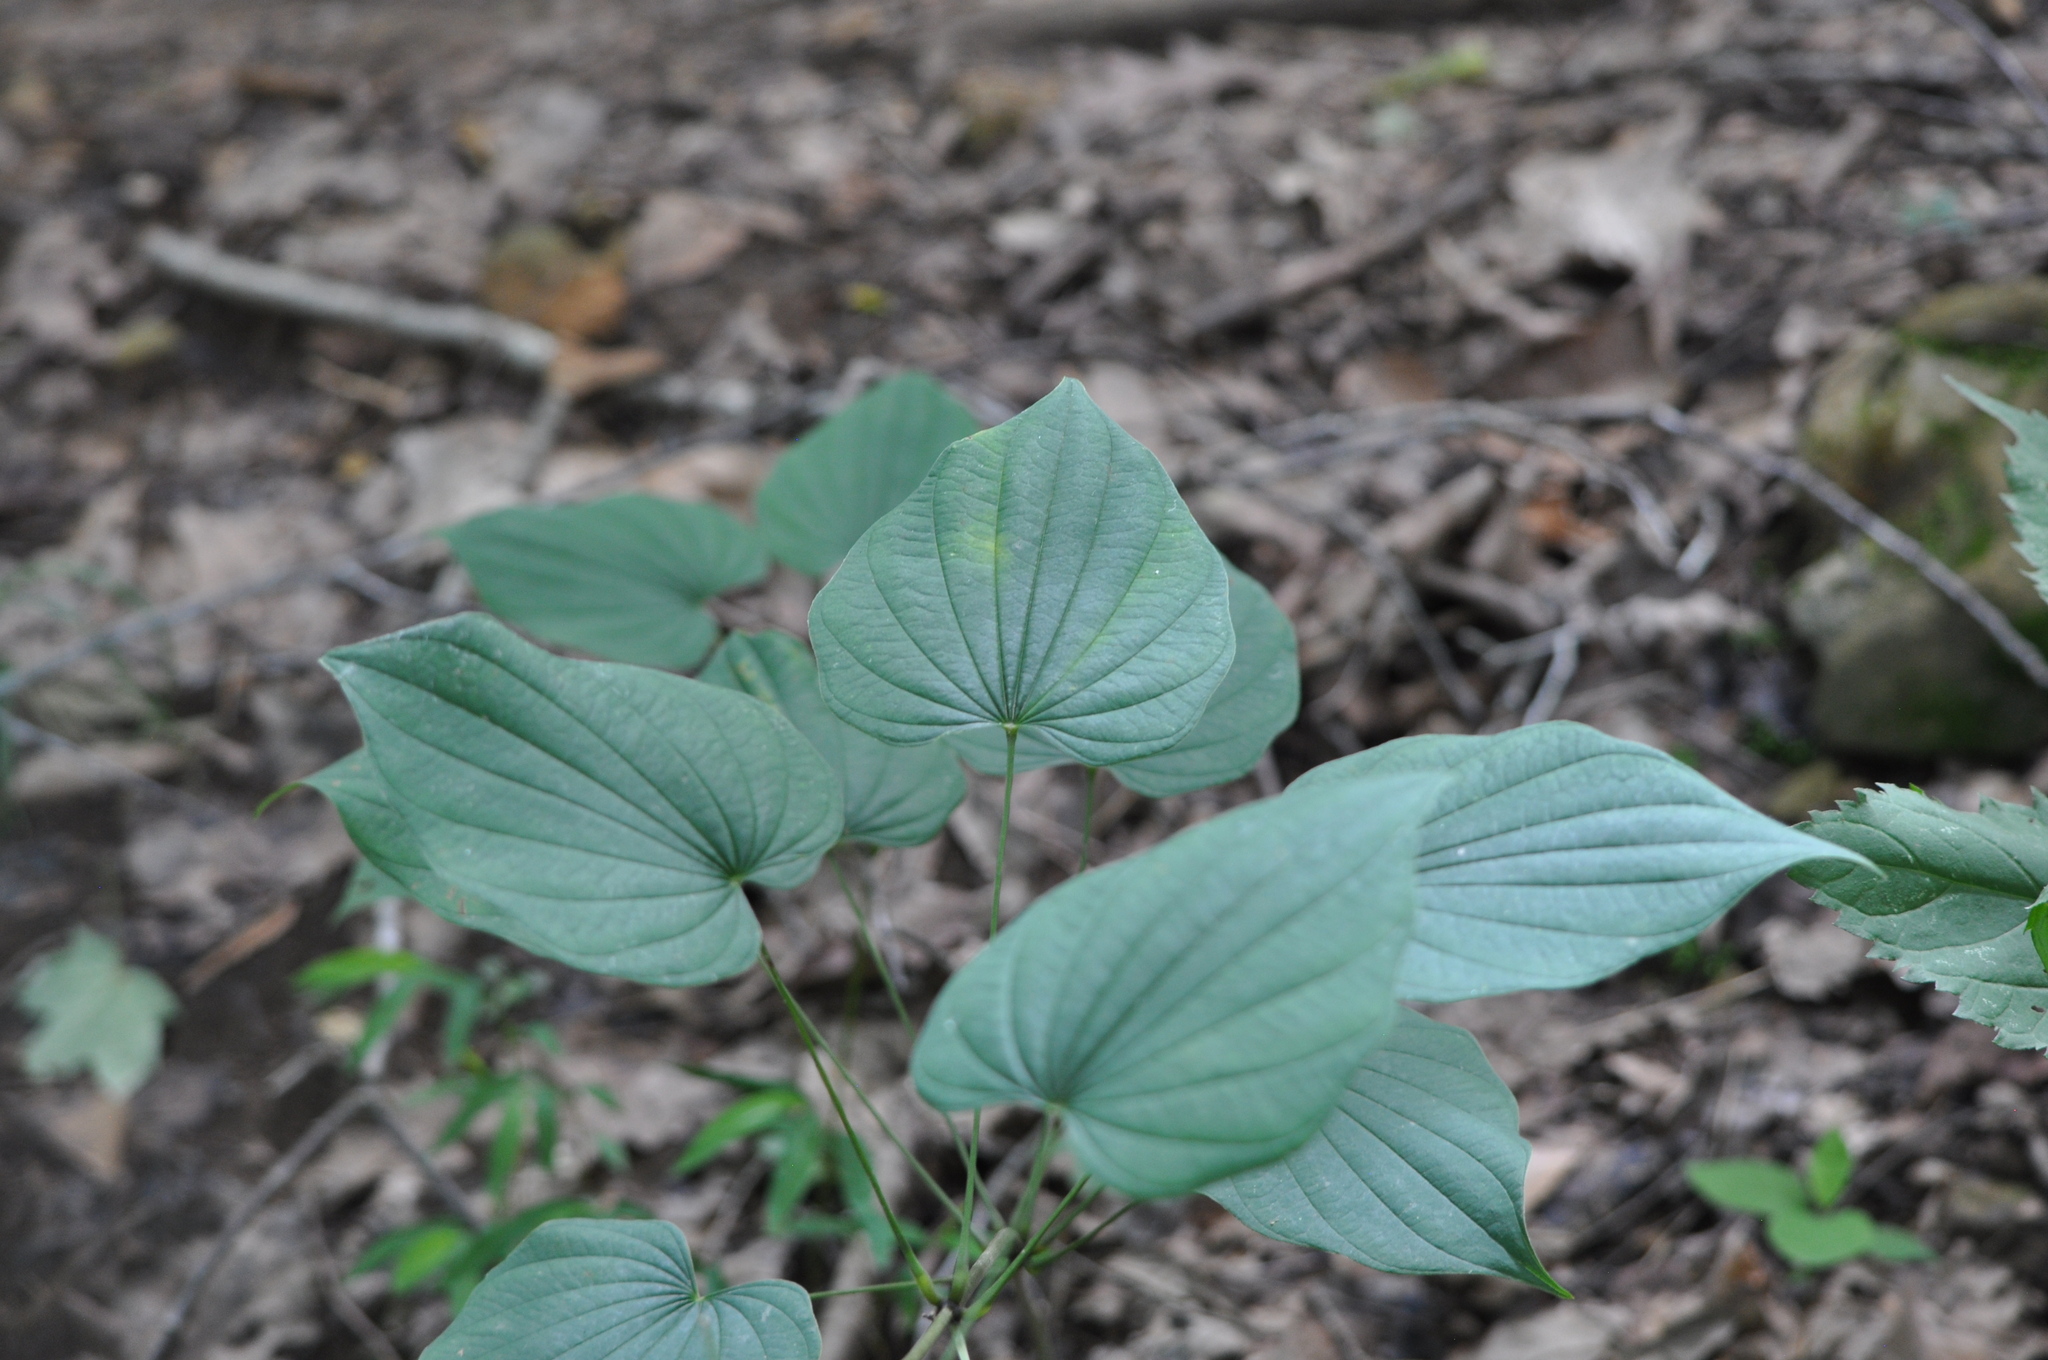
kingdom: Plantae
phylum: Tracheophyta
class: Liliopsida
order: Dioscoreales
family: Dioscoreaceae
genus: Dioscorea
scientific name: Dioscorea villosa
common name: Wild yam
